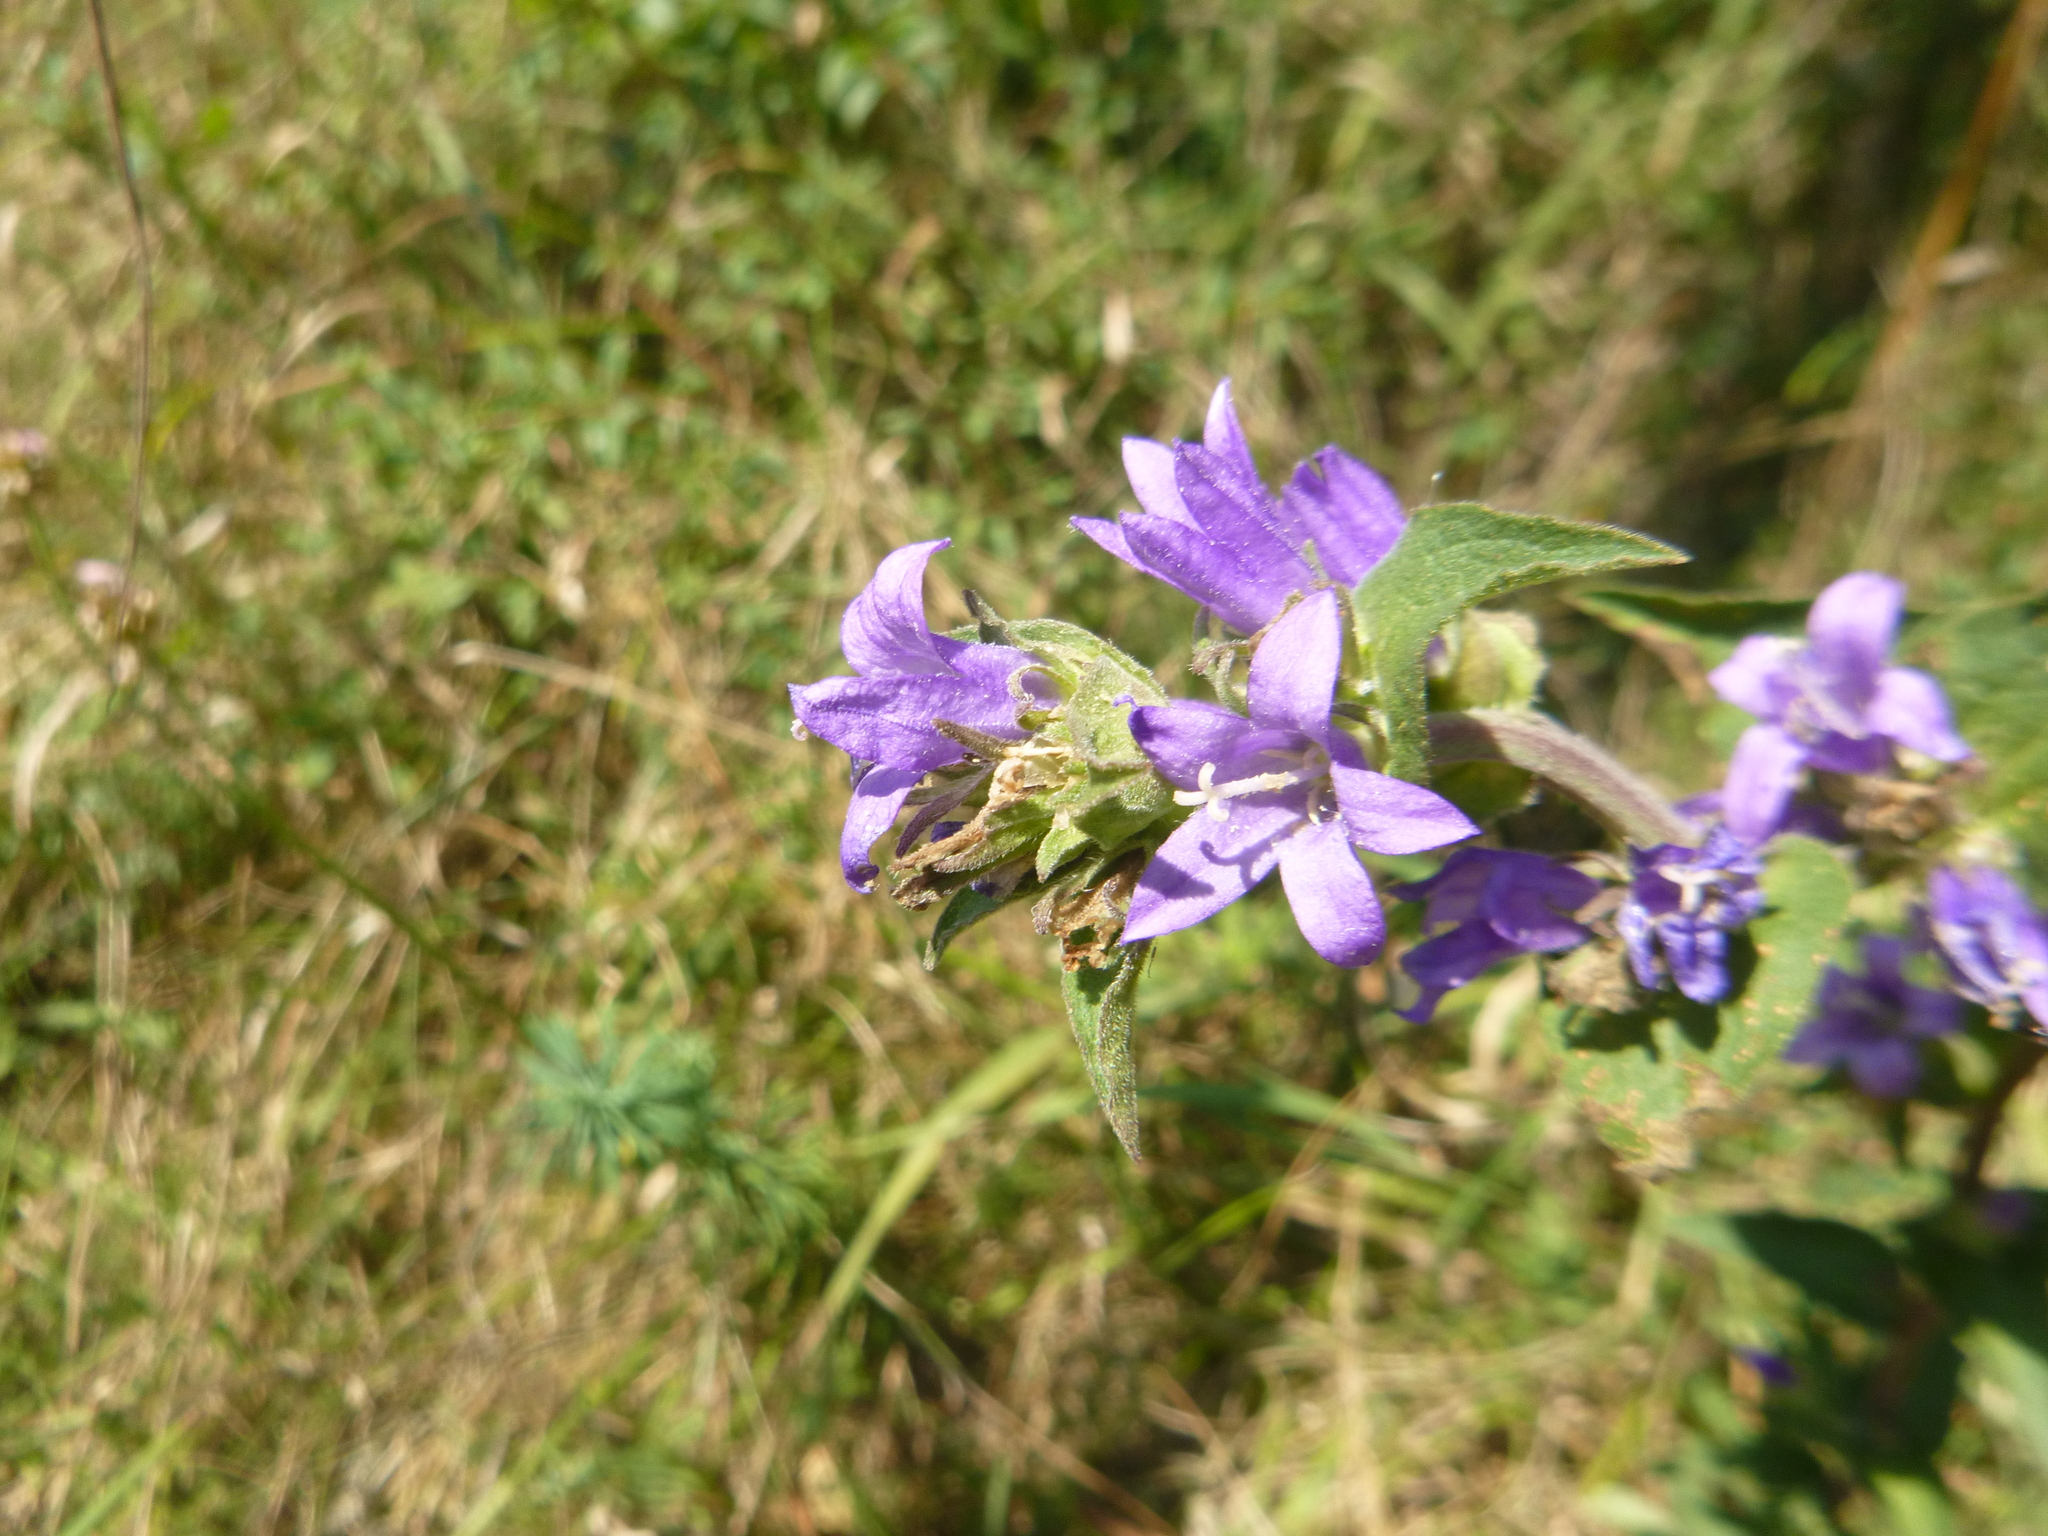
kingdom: Plantae
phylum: Tracheophyta
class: Magnoliopsida
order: Asterales
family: Campanulaceae
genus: Campanula
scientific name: Campanula glomerata
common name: Clustered bellflower
